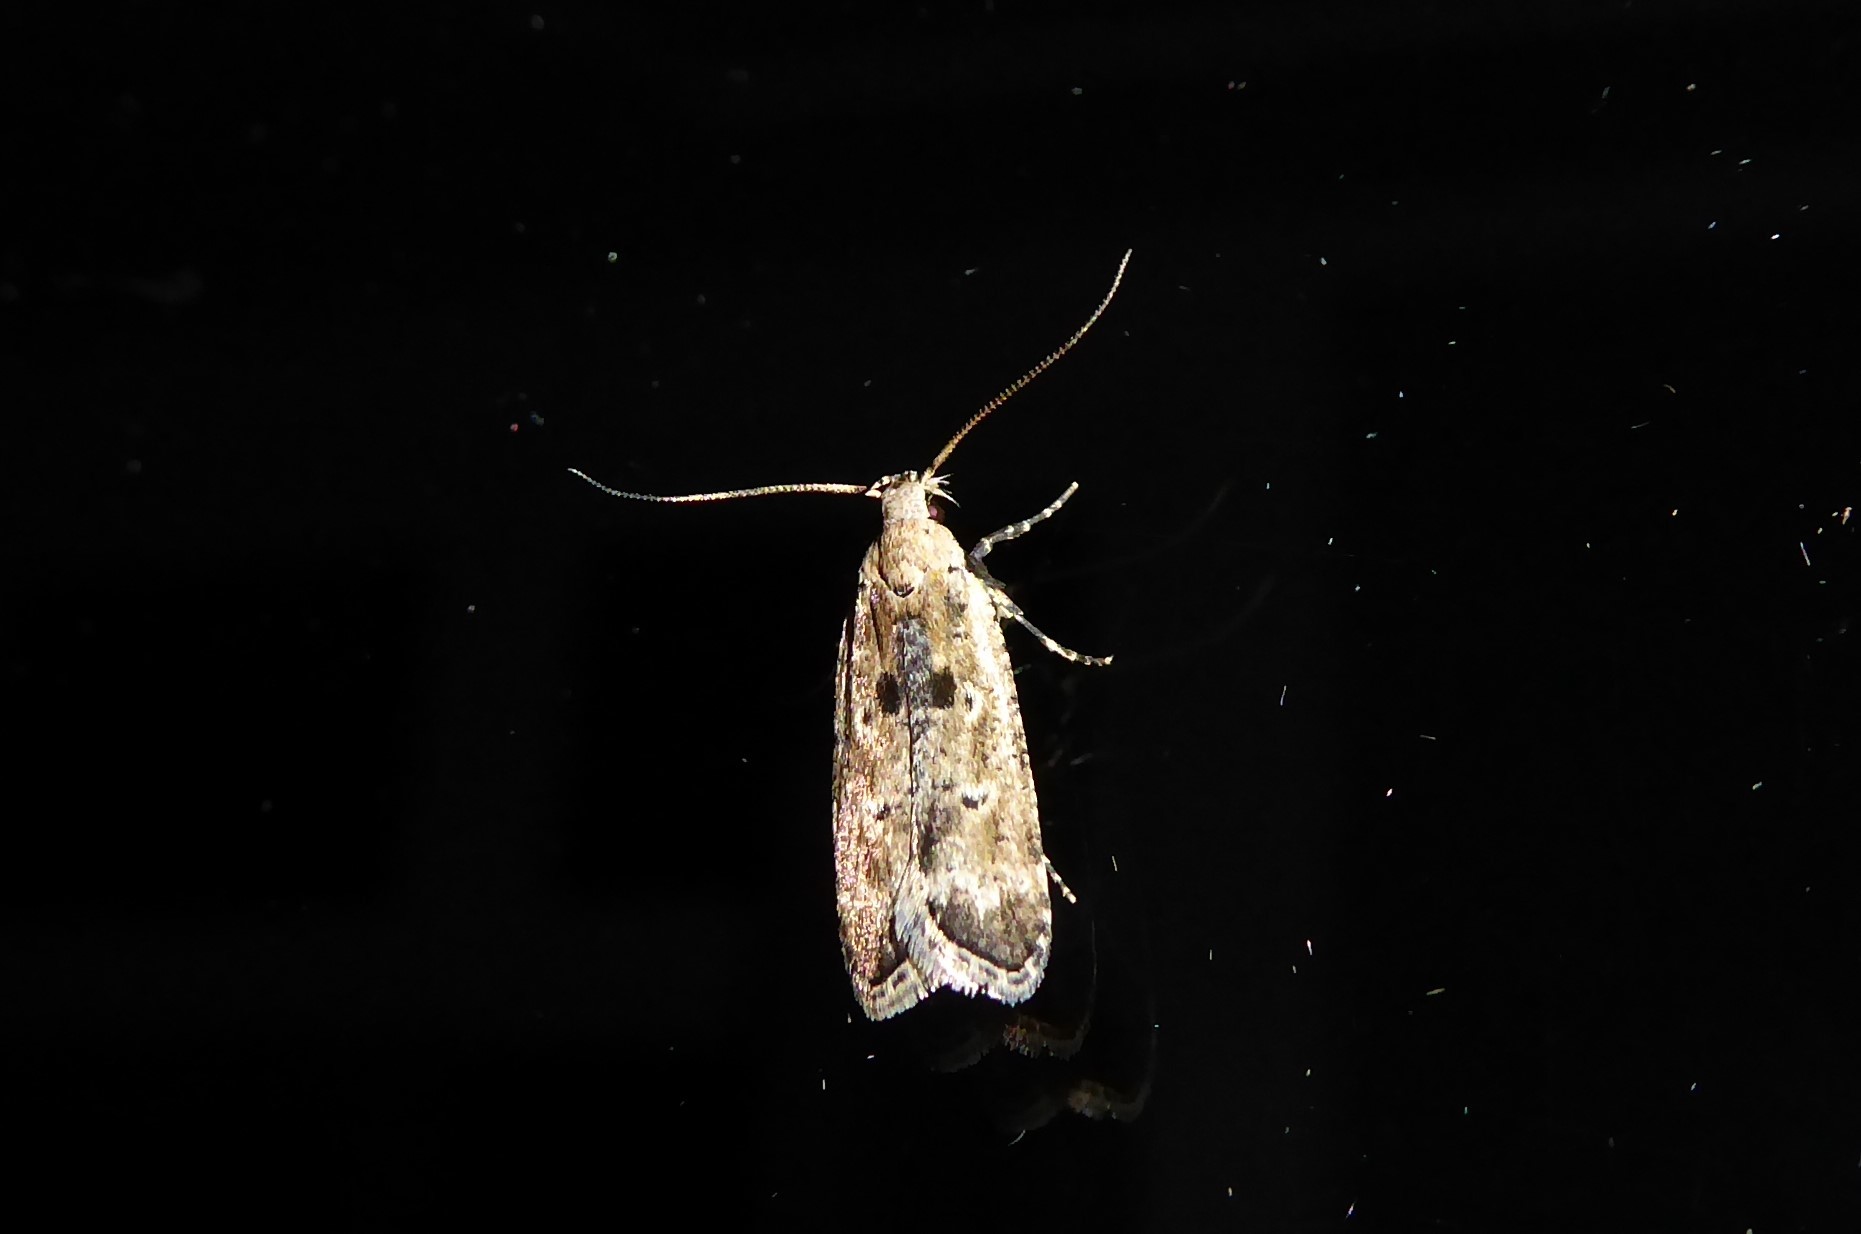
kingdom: Animalia
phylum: Arthropoda
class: Insecta
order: Lepidoptera
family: Gelechiidae
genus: Anisoplaca
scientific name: Anisoplaca achyrota
